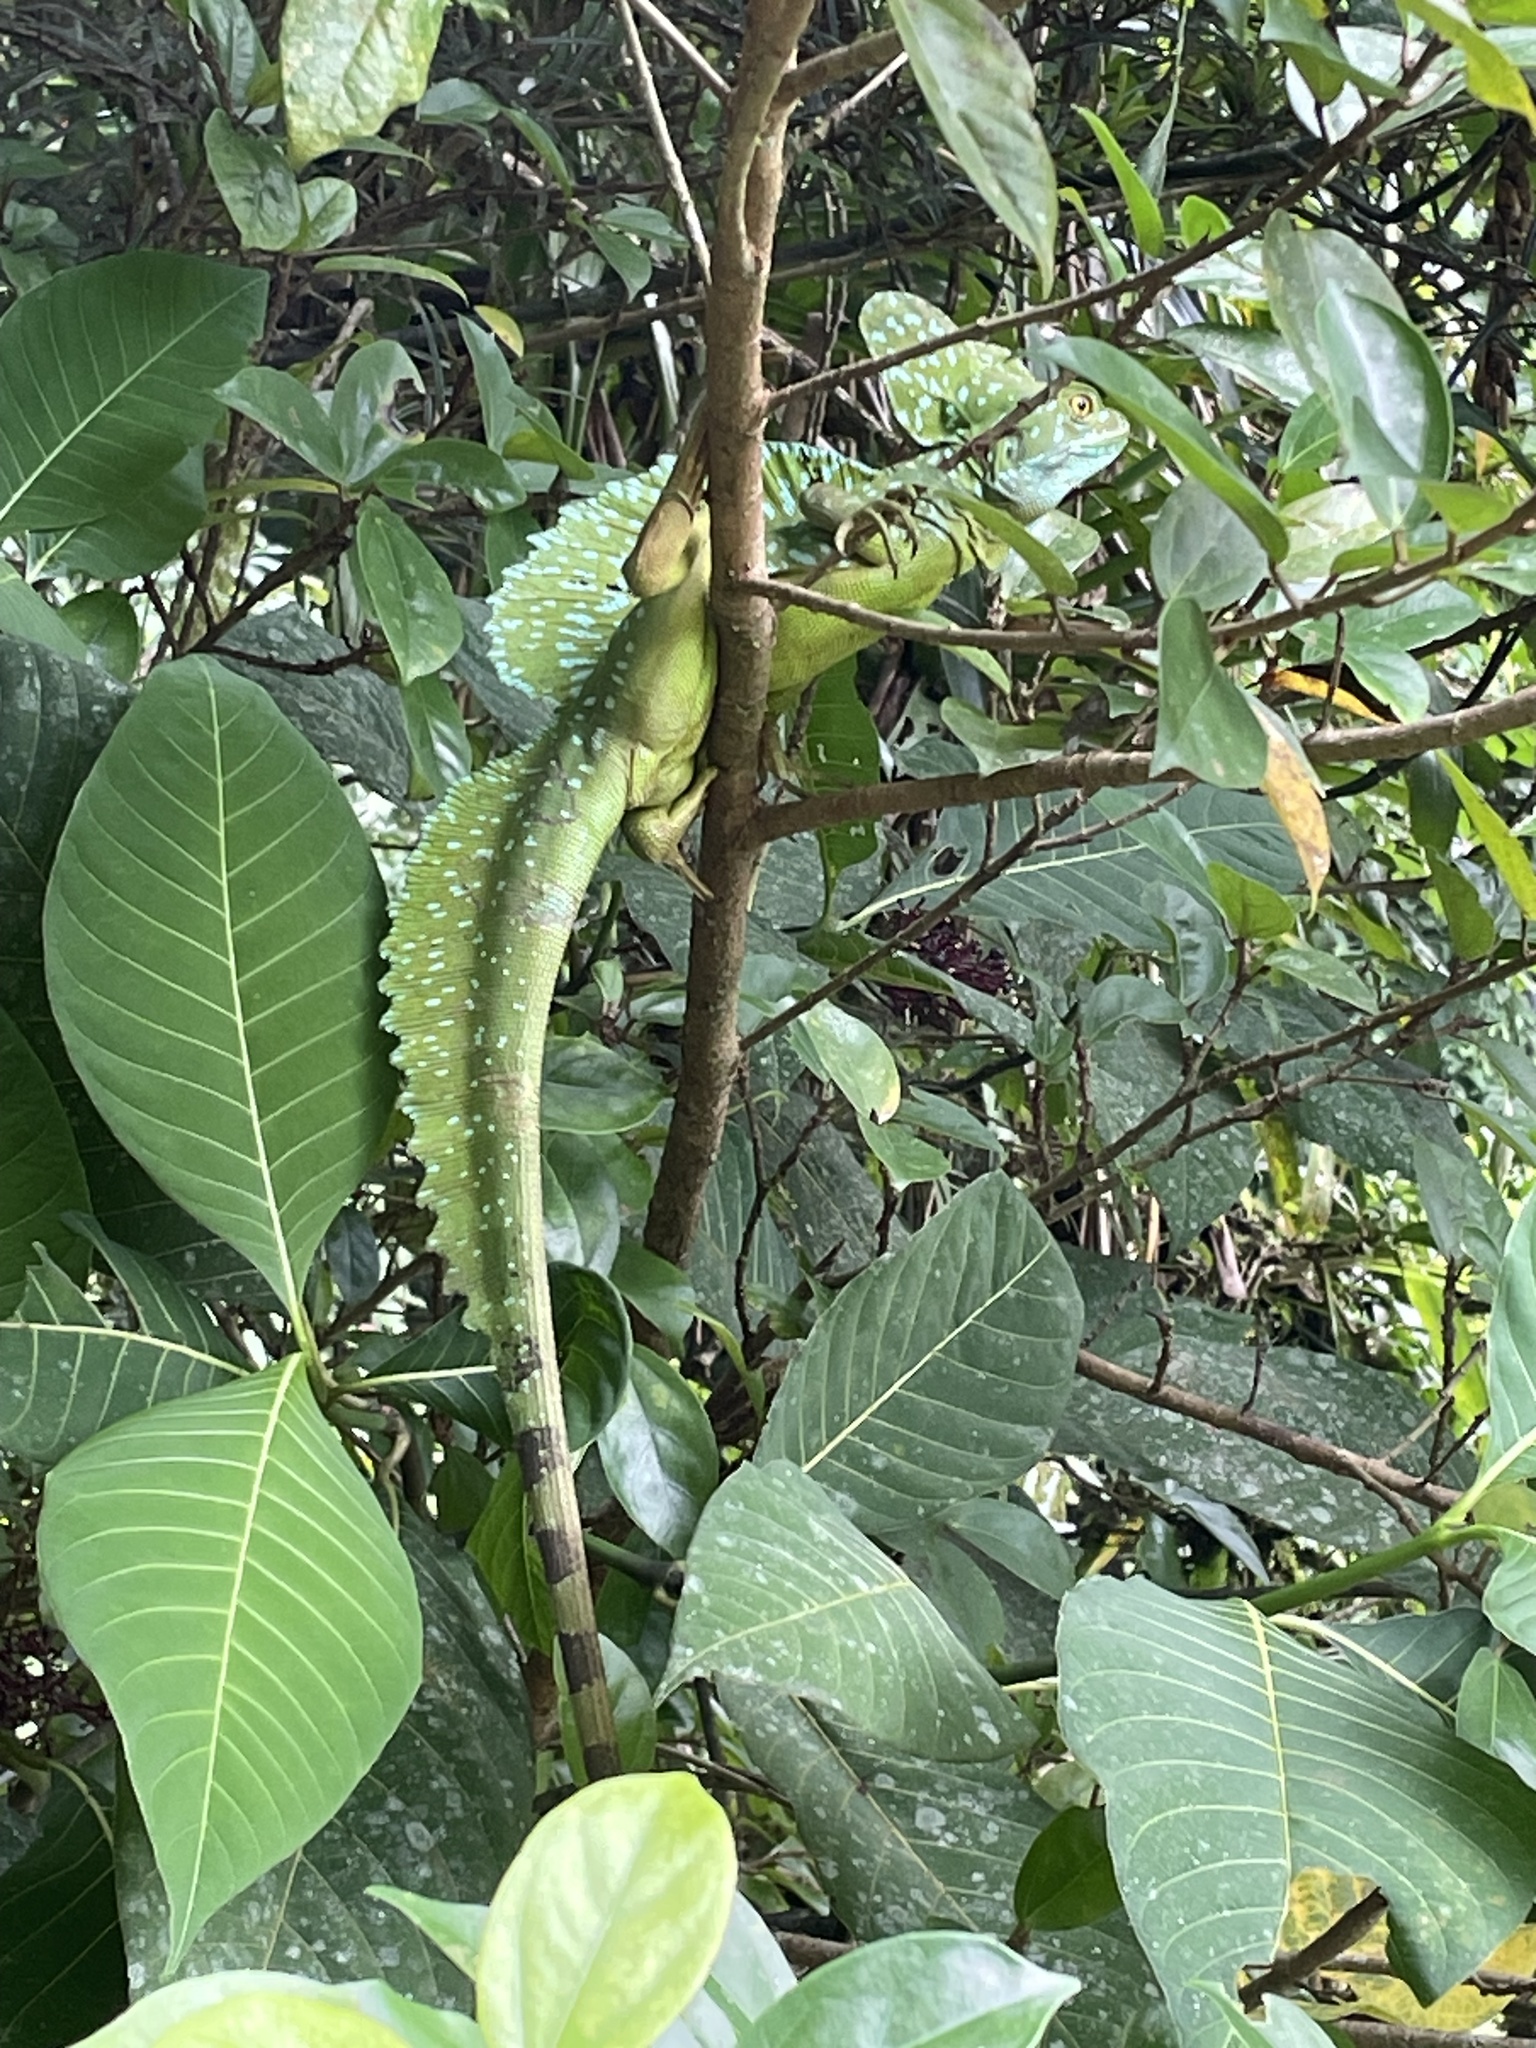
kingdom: Animalia
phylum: Chordata
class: Squamata
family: Corytophanidae
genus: Basiliscus
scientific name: Basiliscus plumifrons
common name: Green basilisk
